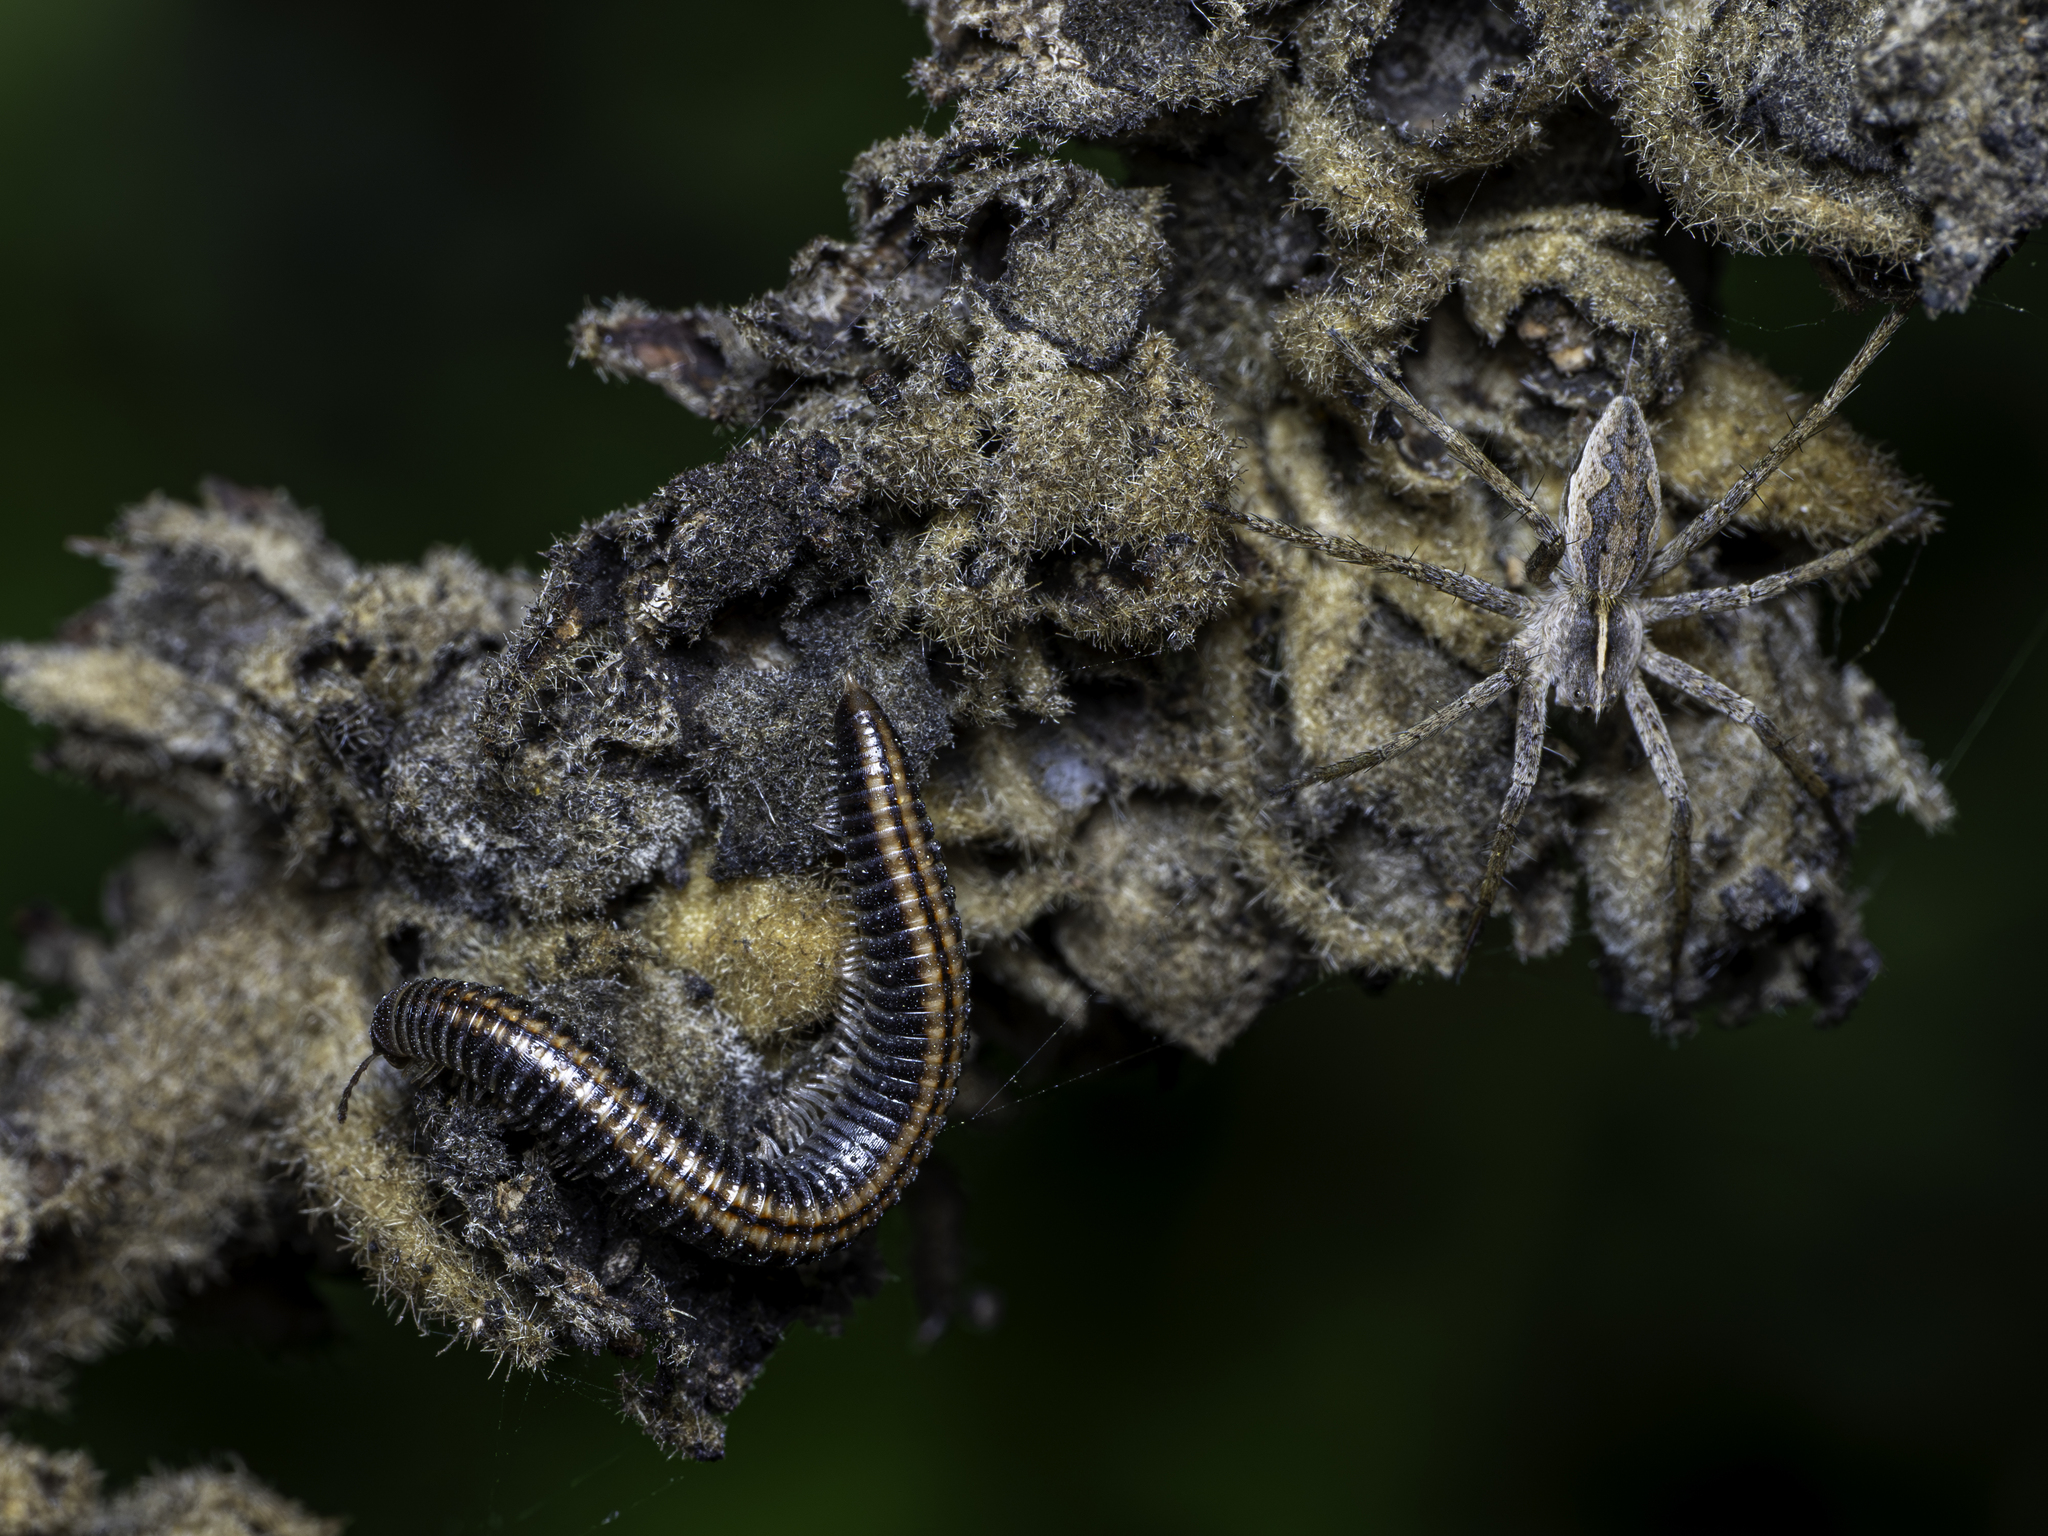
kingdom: Animalia
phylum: Arthropoda
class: Arachnida
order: Araneae
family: Pisauridae
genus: Pisaura
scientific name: Pisaura mirabilis
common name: Tent spider
